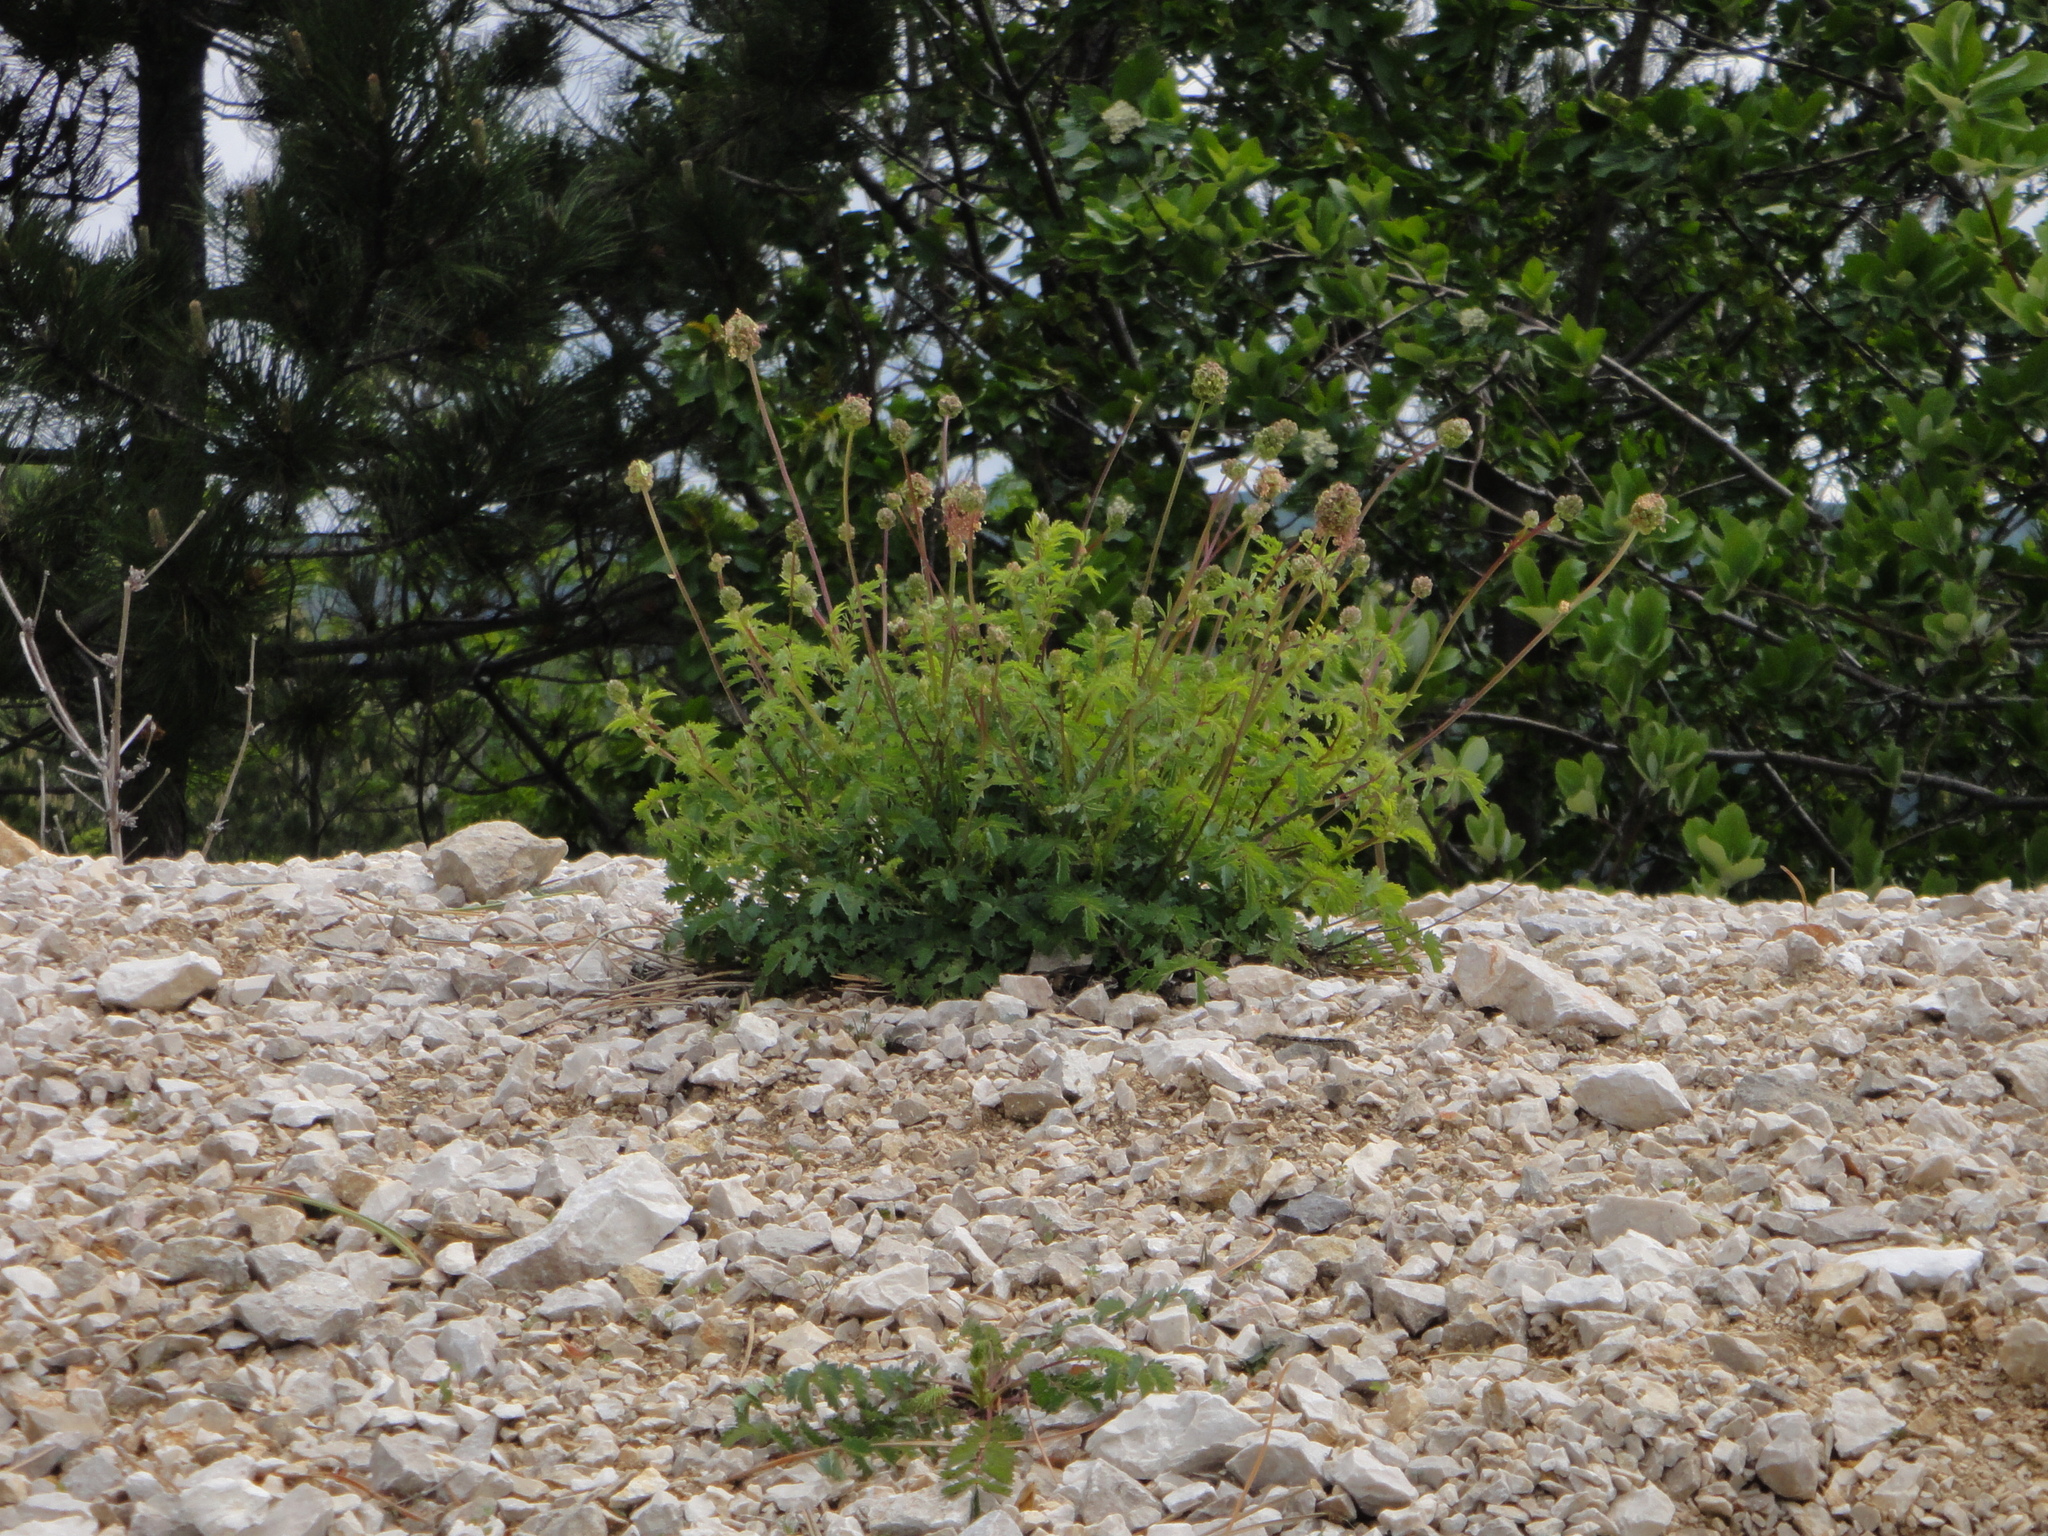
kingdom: Plantae
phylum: Tracheophyta
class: Magnoliopsida
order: Rosales
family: Rosaceae
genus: Poterium
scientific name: Poterium sanguisorba
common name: Salad burnet
